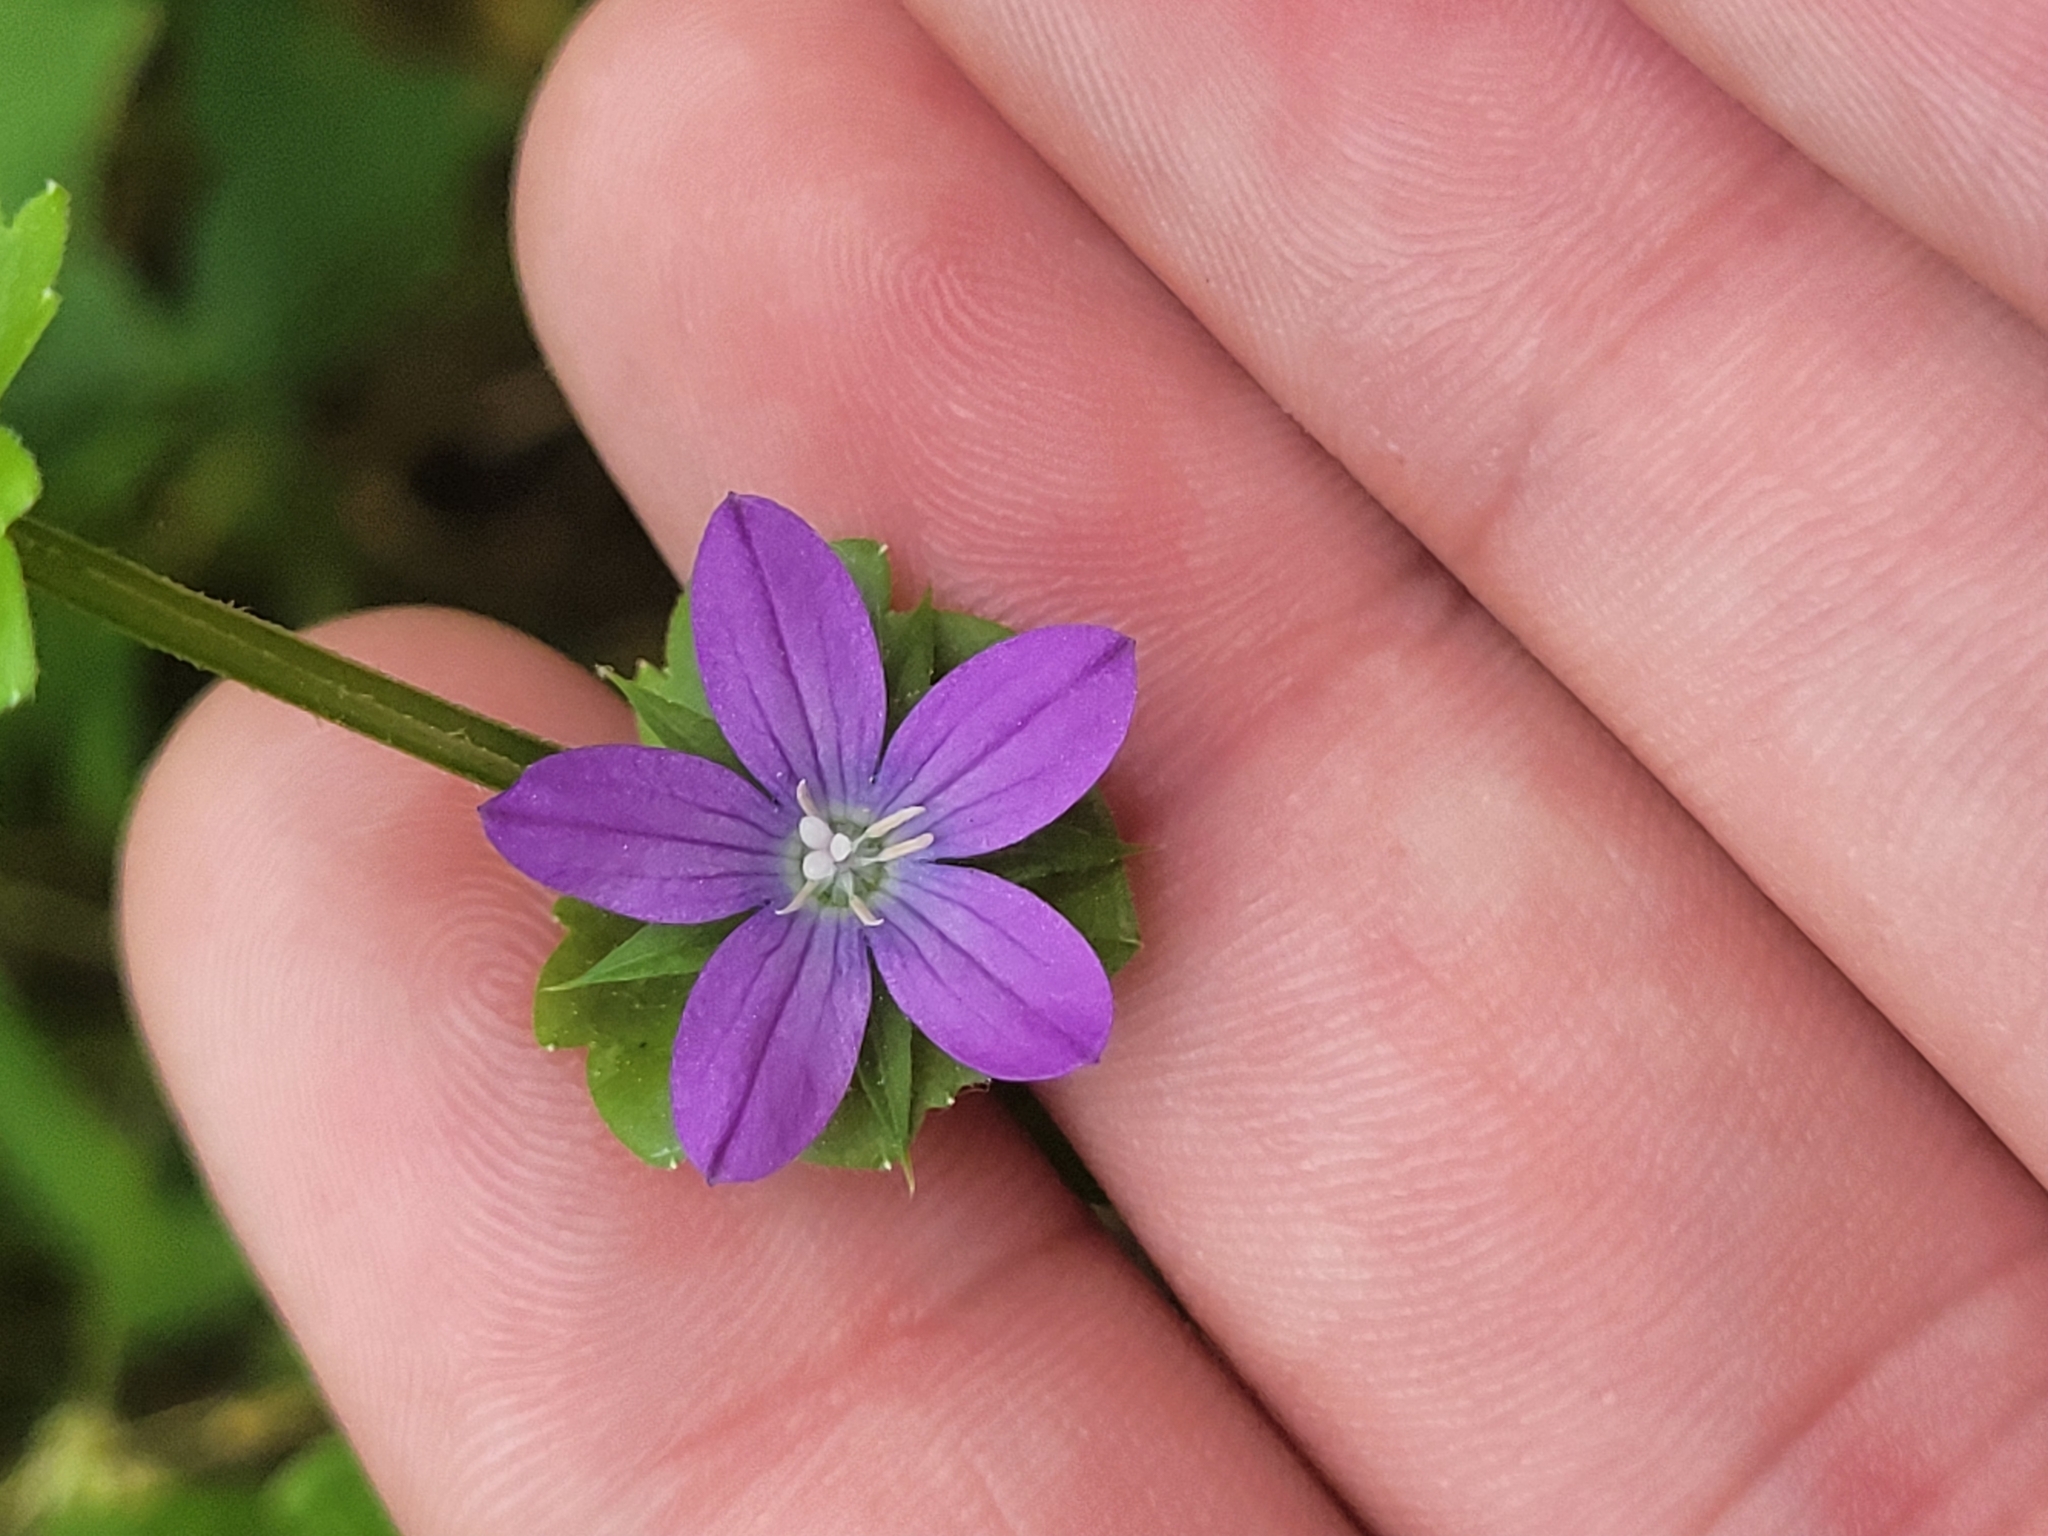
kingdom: Plantae
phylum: Tracheophyta
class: Magnoliopsida
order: Asterales
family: Campanulaceae
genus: Triodanis
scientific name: Triodanis perfoliata
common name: Clasping venus' looking-glass
